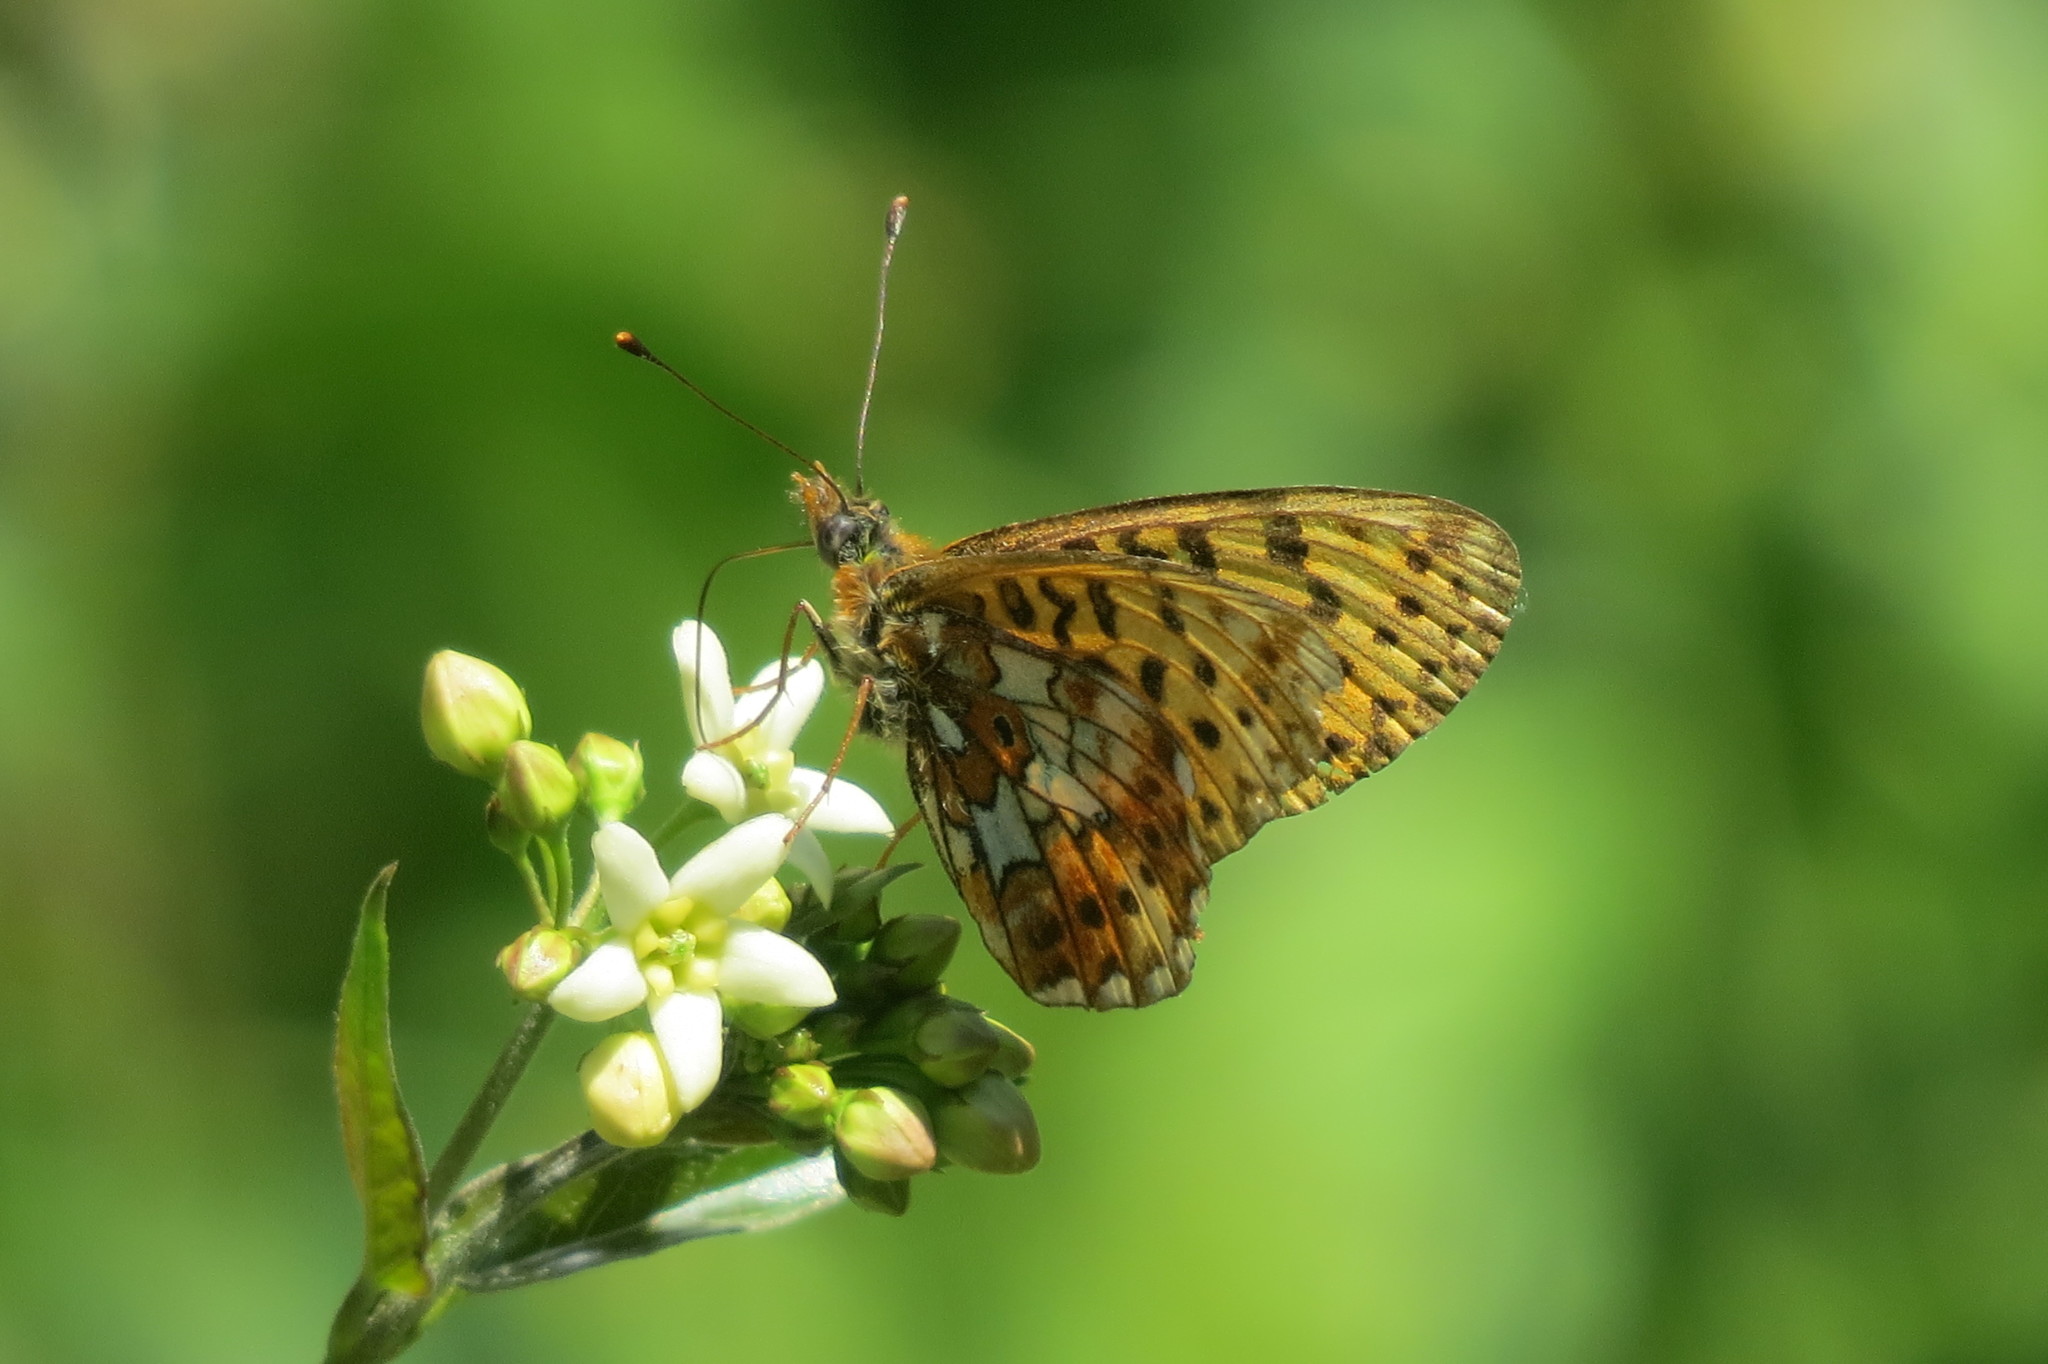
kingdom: Animalia
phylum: Arthropoda
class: Insecta
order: Lepidoptera
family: Nymphalidae
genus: Clossiana
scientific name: Clossiana euphrosyne
